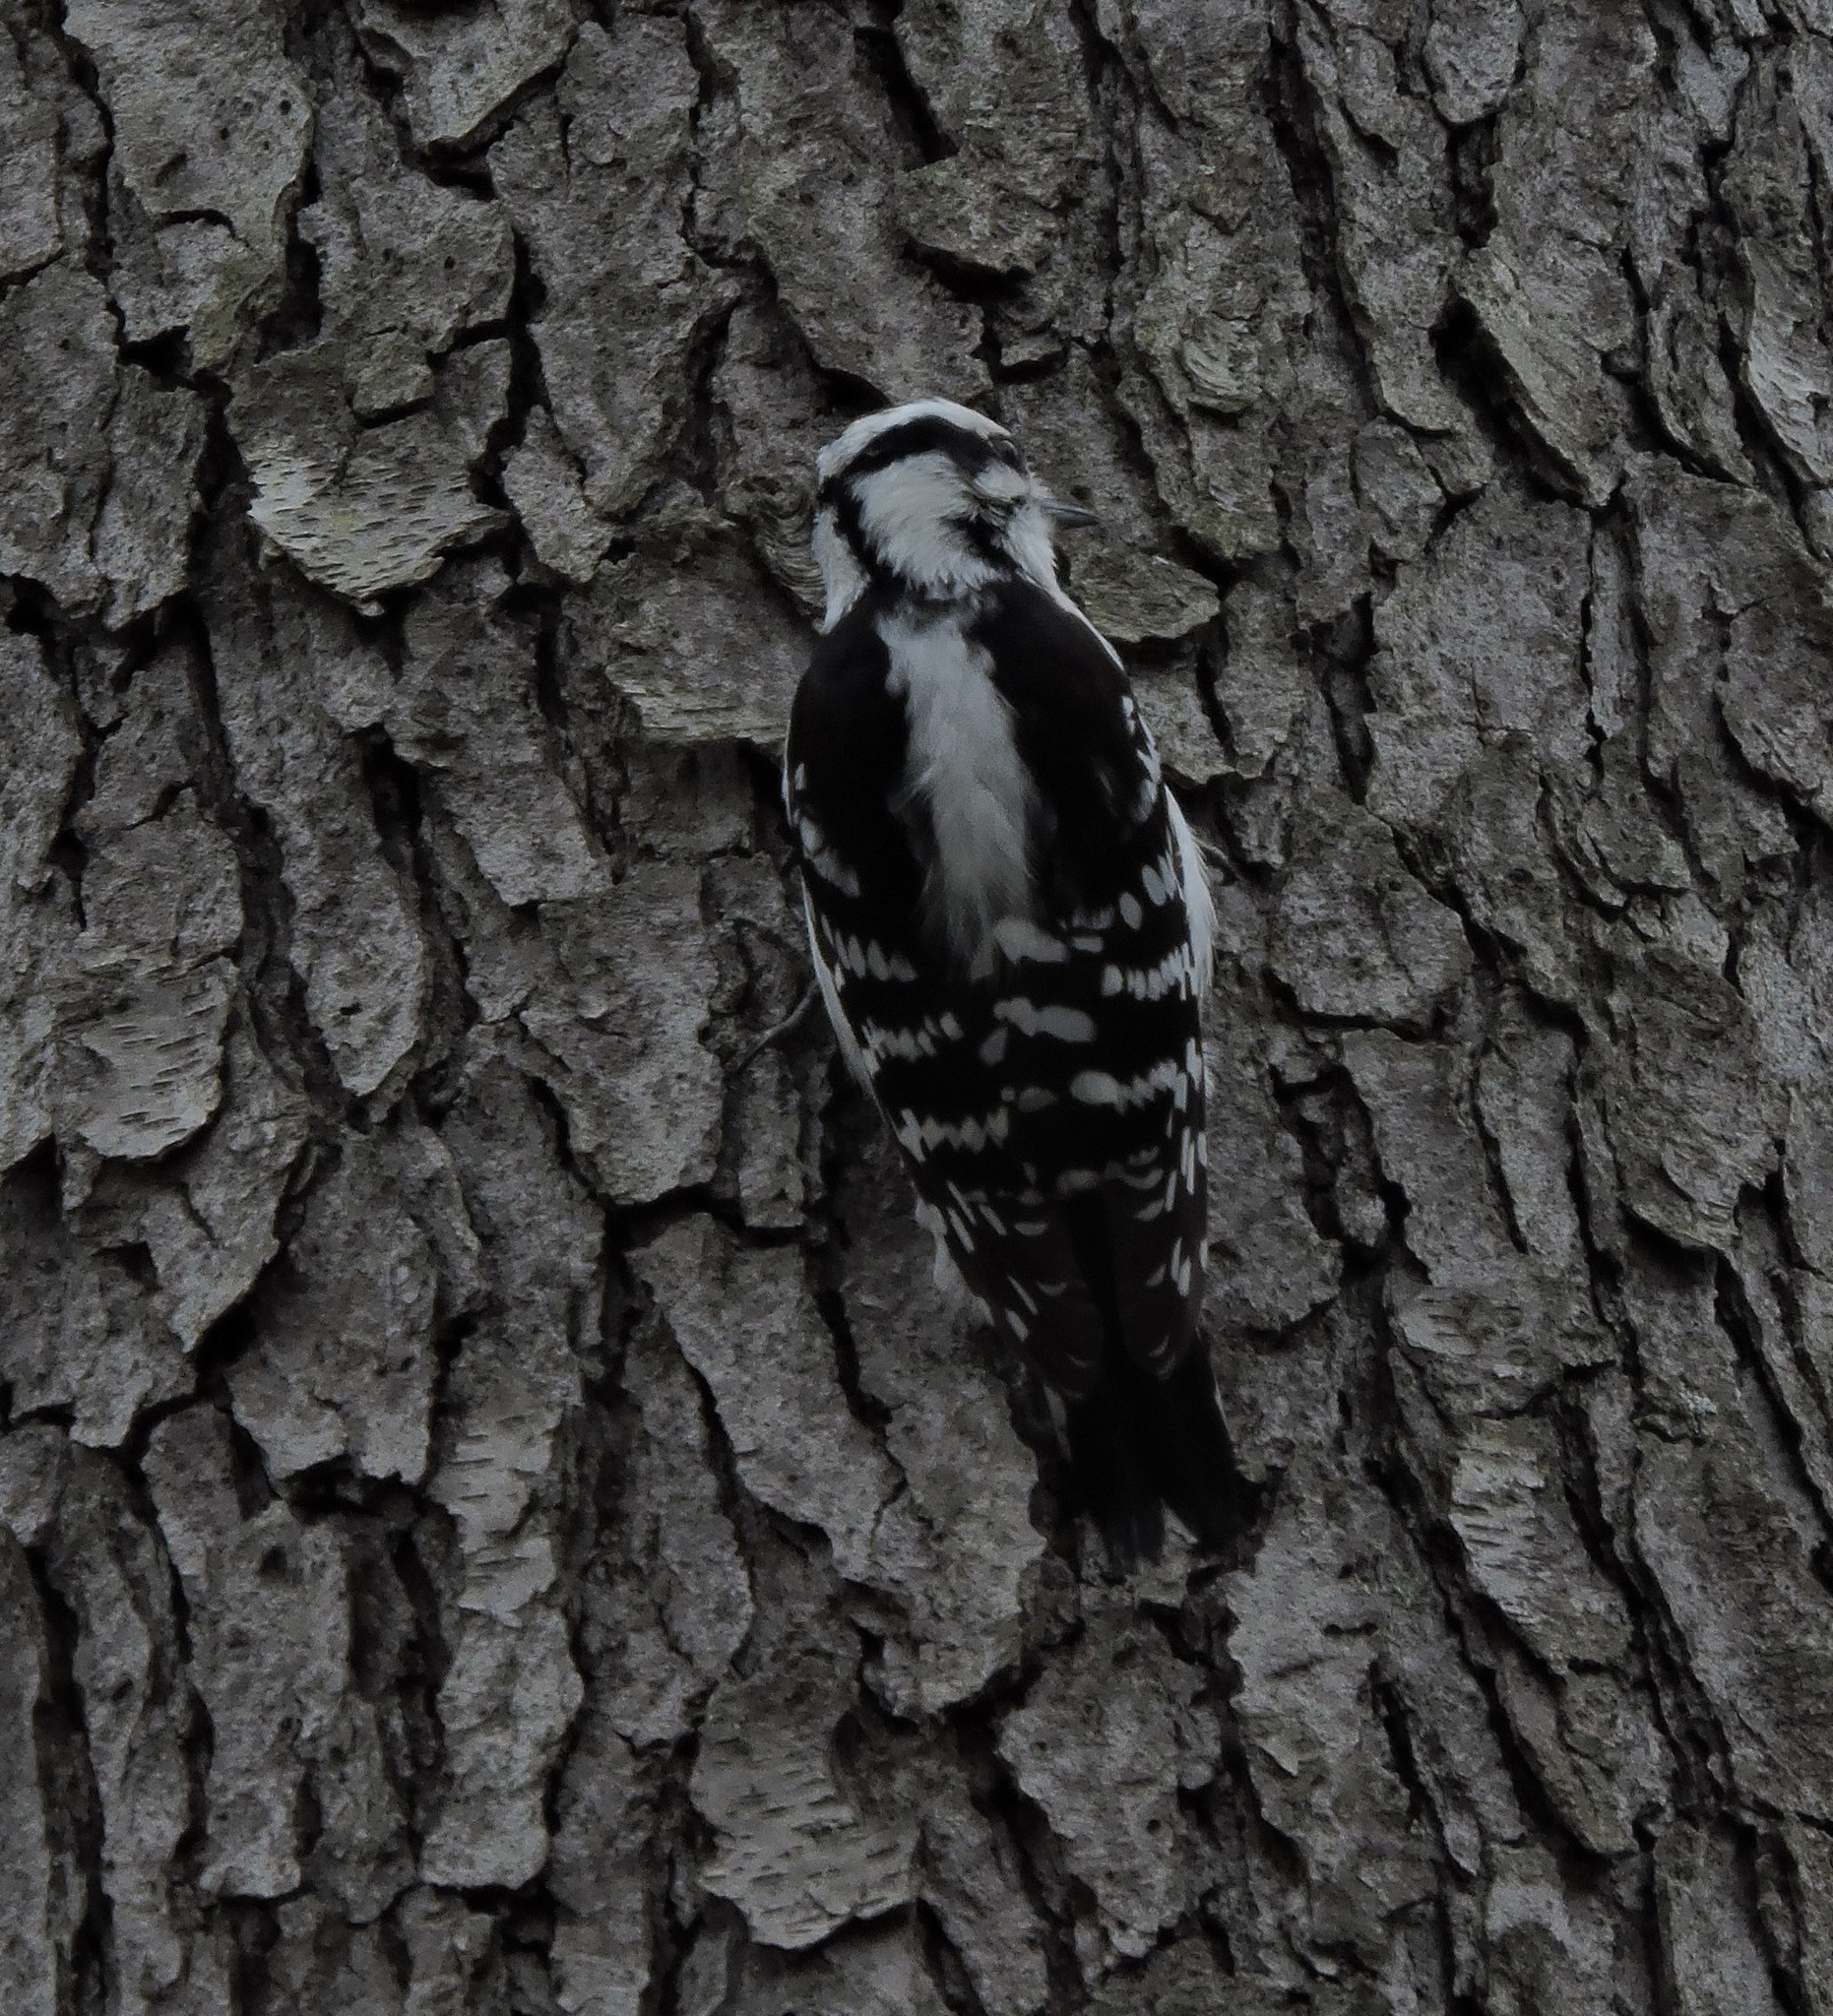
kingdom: Animalia
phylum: Chordata
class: Aves
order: Piciformes
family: Picidae
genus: Dryobates
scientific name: Dryobates pubescens
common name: Downy woodpecker
